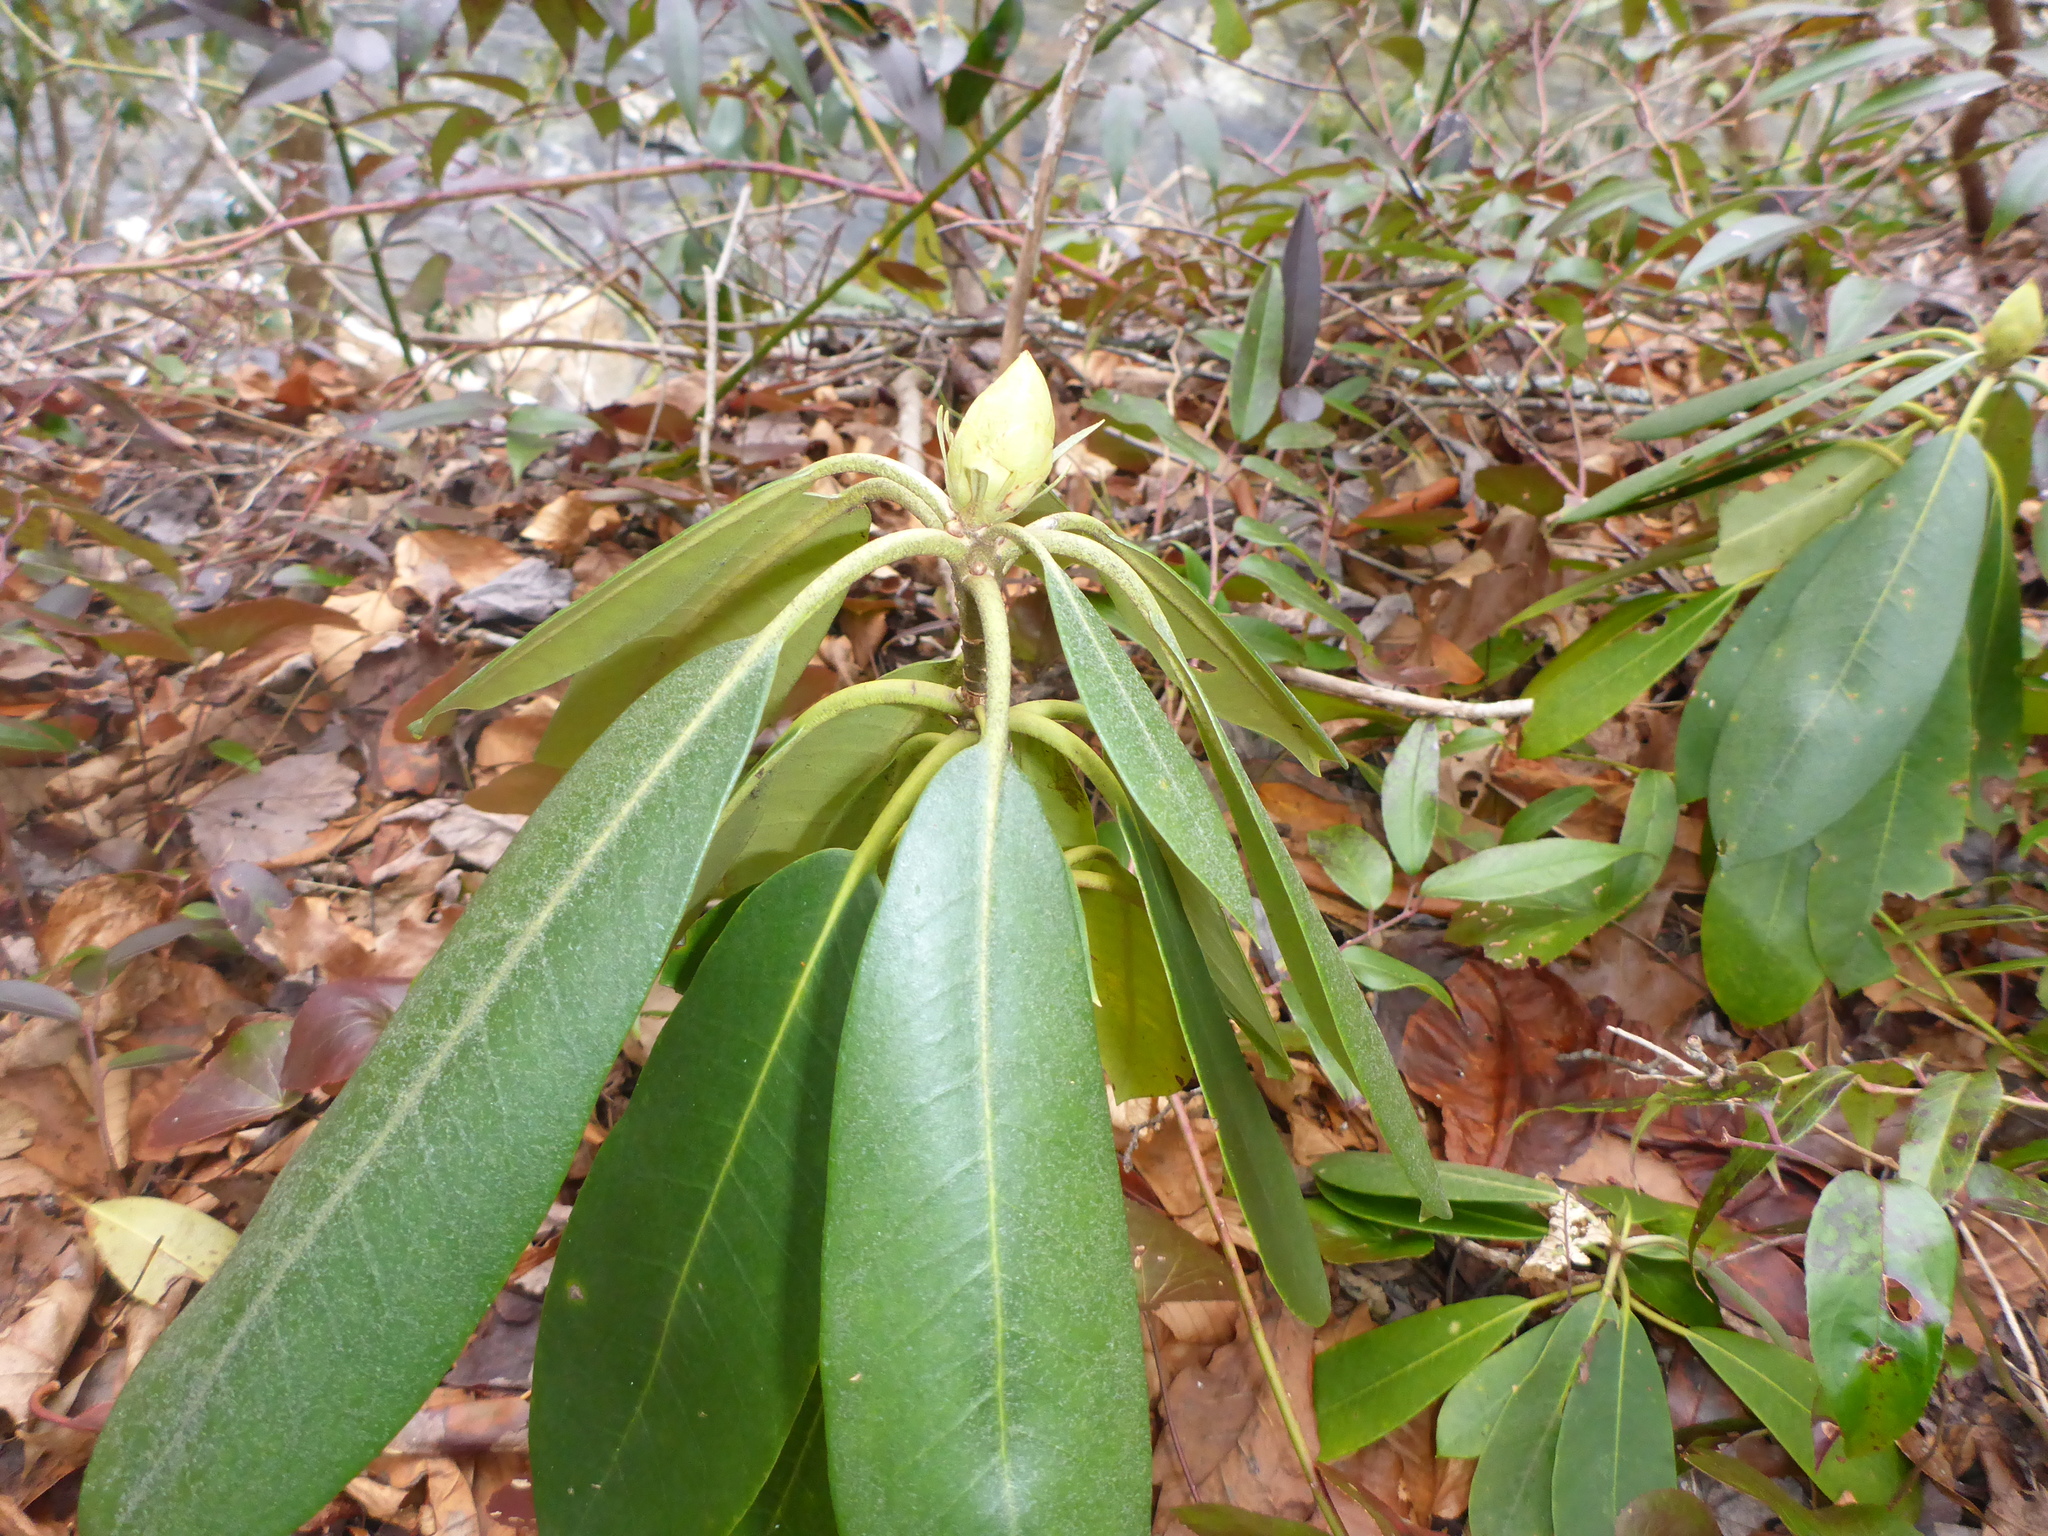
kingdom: Plantae
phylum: Tracheophyta
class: Magnoliopsida
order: Ericales
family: Ericaceae
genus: Rhododendron
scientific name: Rhododendron maximum
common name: Great rhododendron
